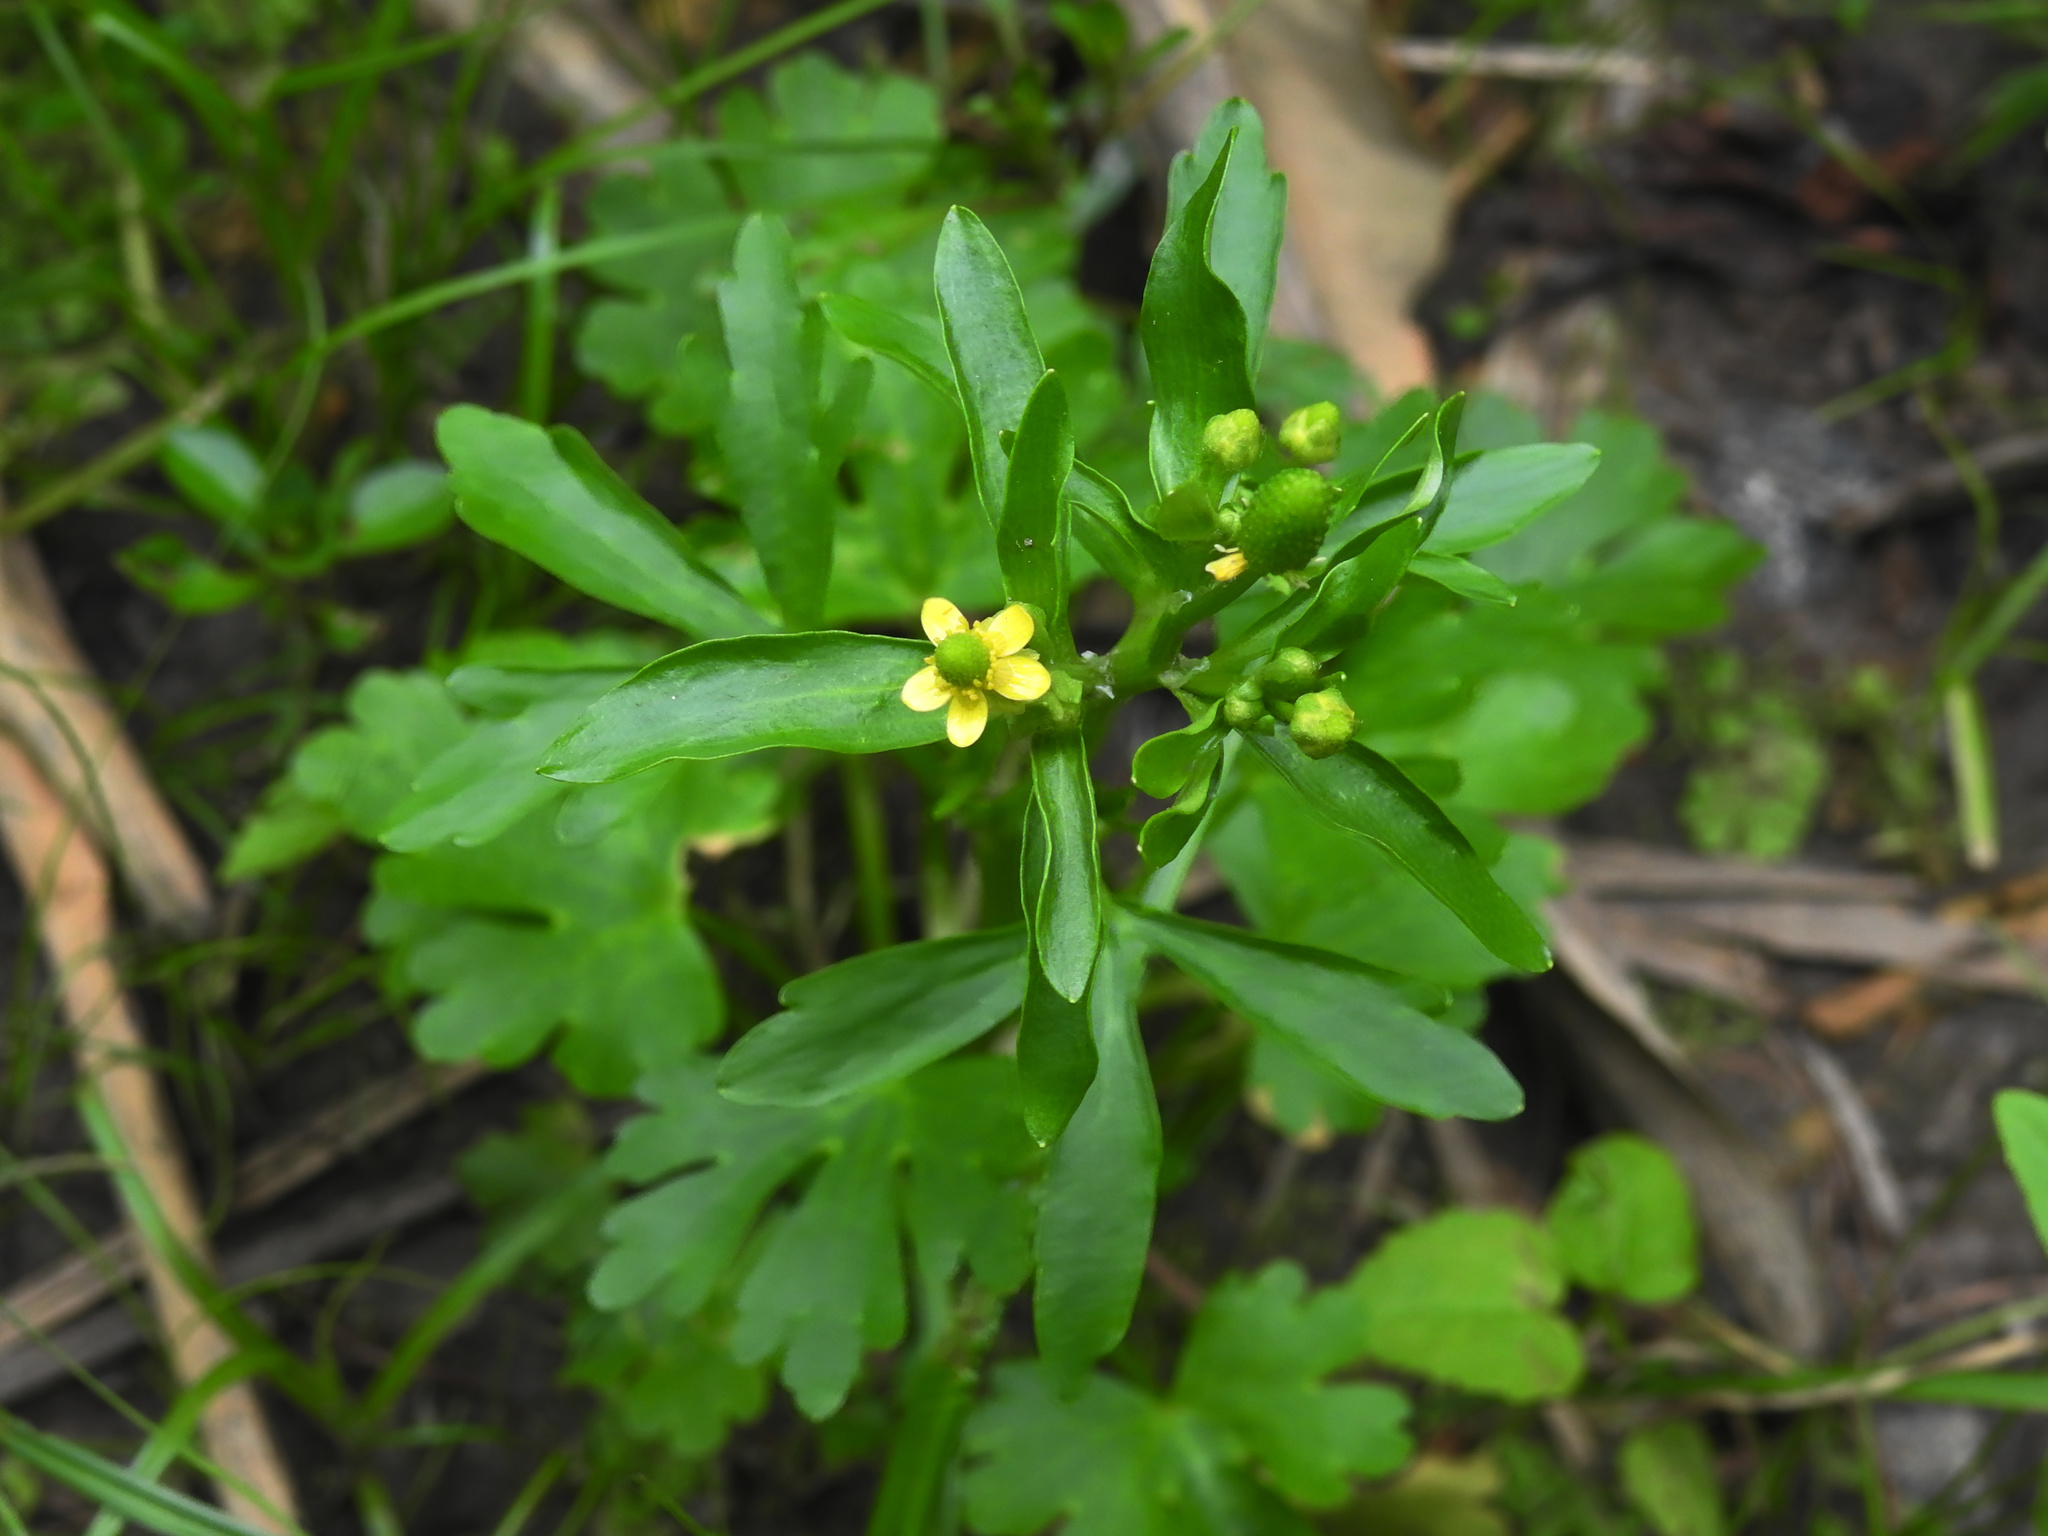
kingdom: Plantae
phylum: Tracheophyta
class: Magnoliopsida
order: Ranunculales
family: Ranunculaceae
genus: Ranunculus
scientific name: Ranunculus sceleratus
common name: Celery-leaved buttercup
